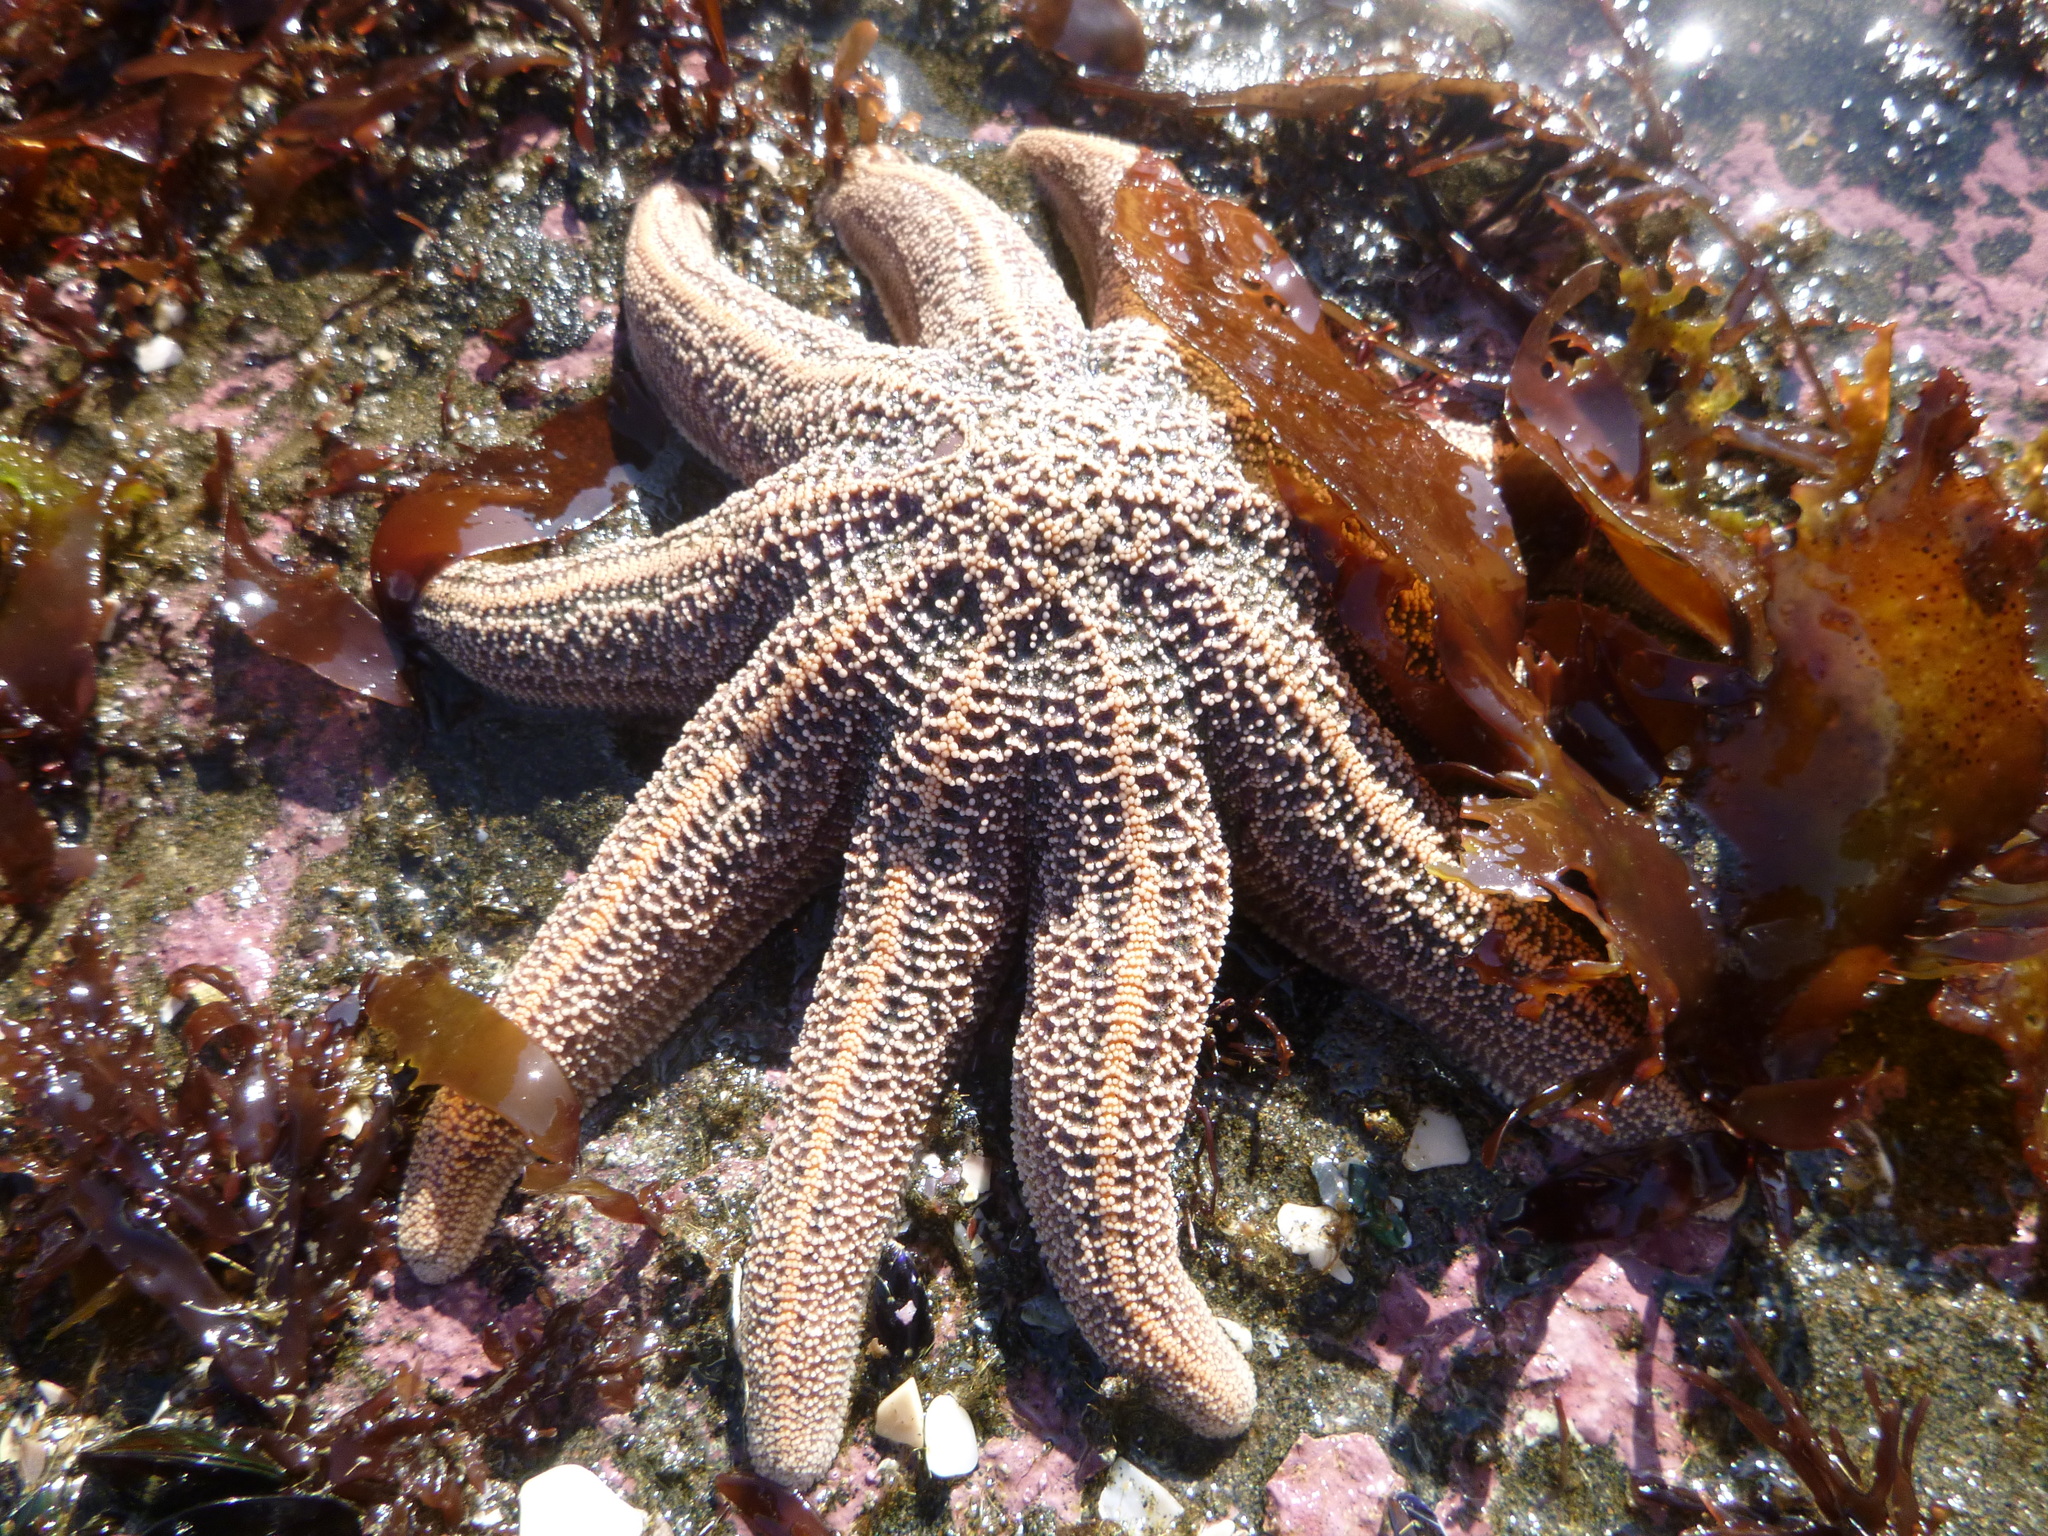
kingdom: Animalia
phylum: Echinodermata
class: Asteroidea
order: Forcipulatida
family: Stichasteridae
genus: Stichaster
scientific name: Stichaster australis
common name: Reef starfish
